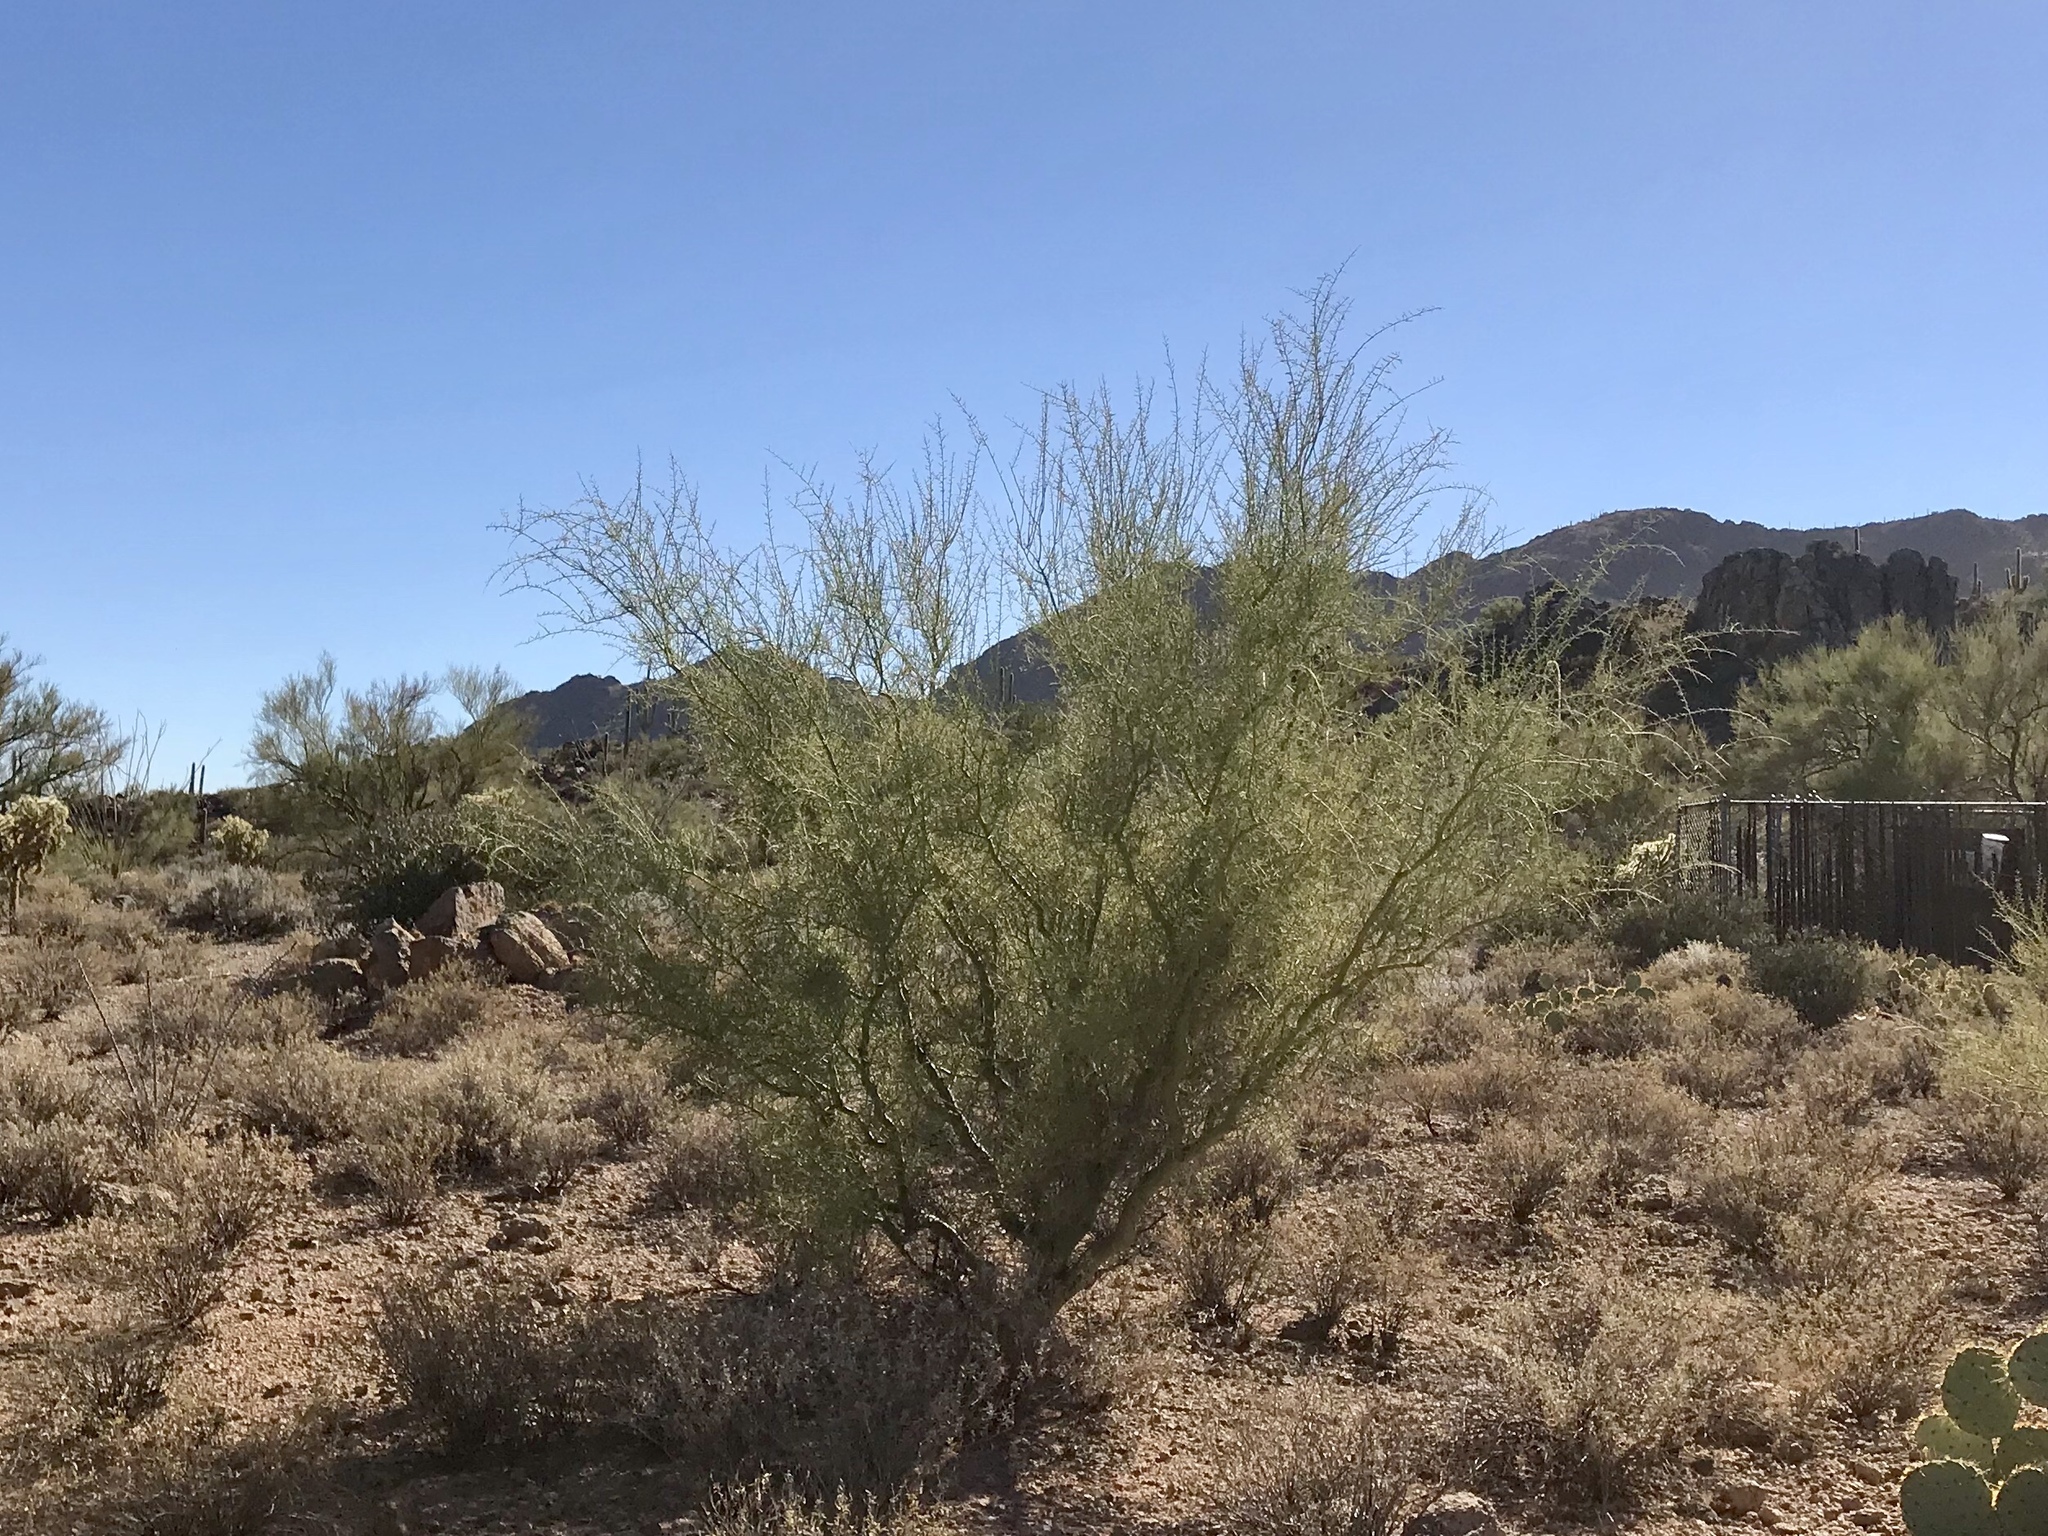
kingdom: Plantae
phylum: Tracheophyta
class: Magnoliopsida
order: Fabales
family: Fabaceae
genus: Parkinsonia
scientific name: Parkinsonia microphylla
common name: Yellow paloverde
